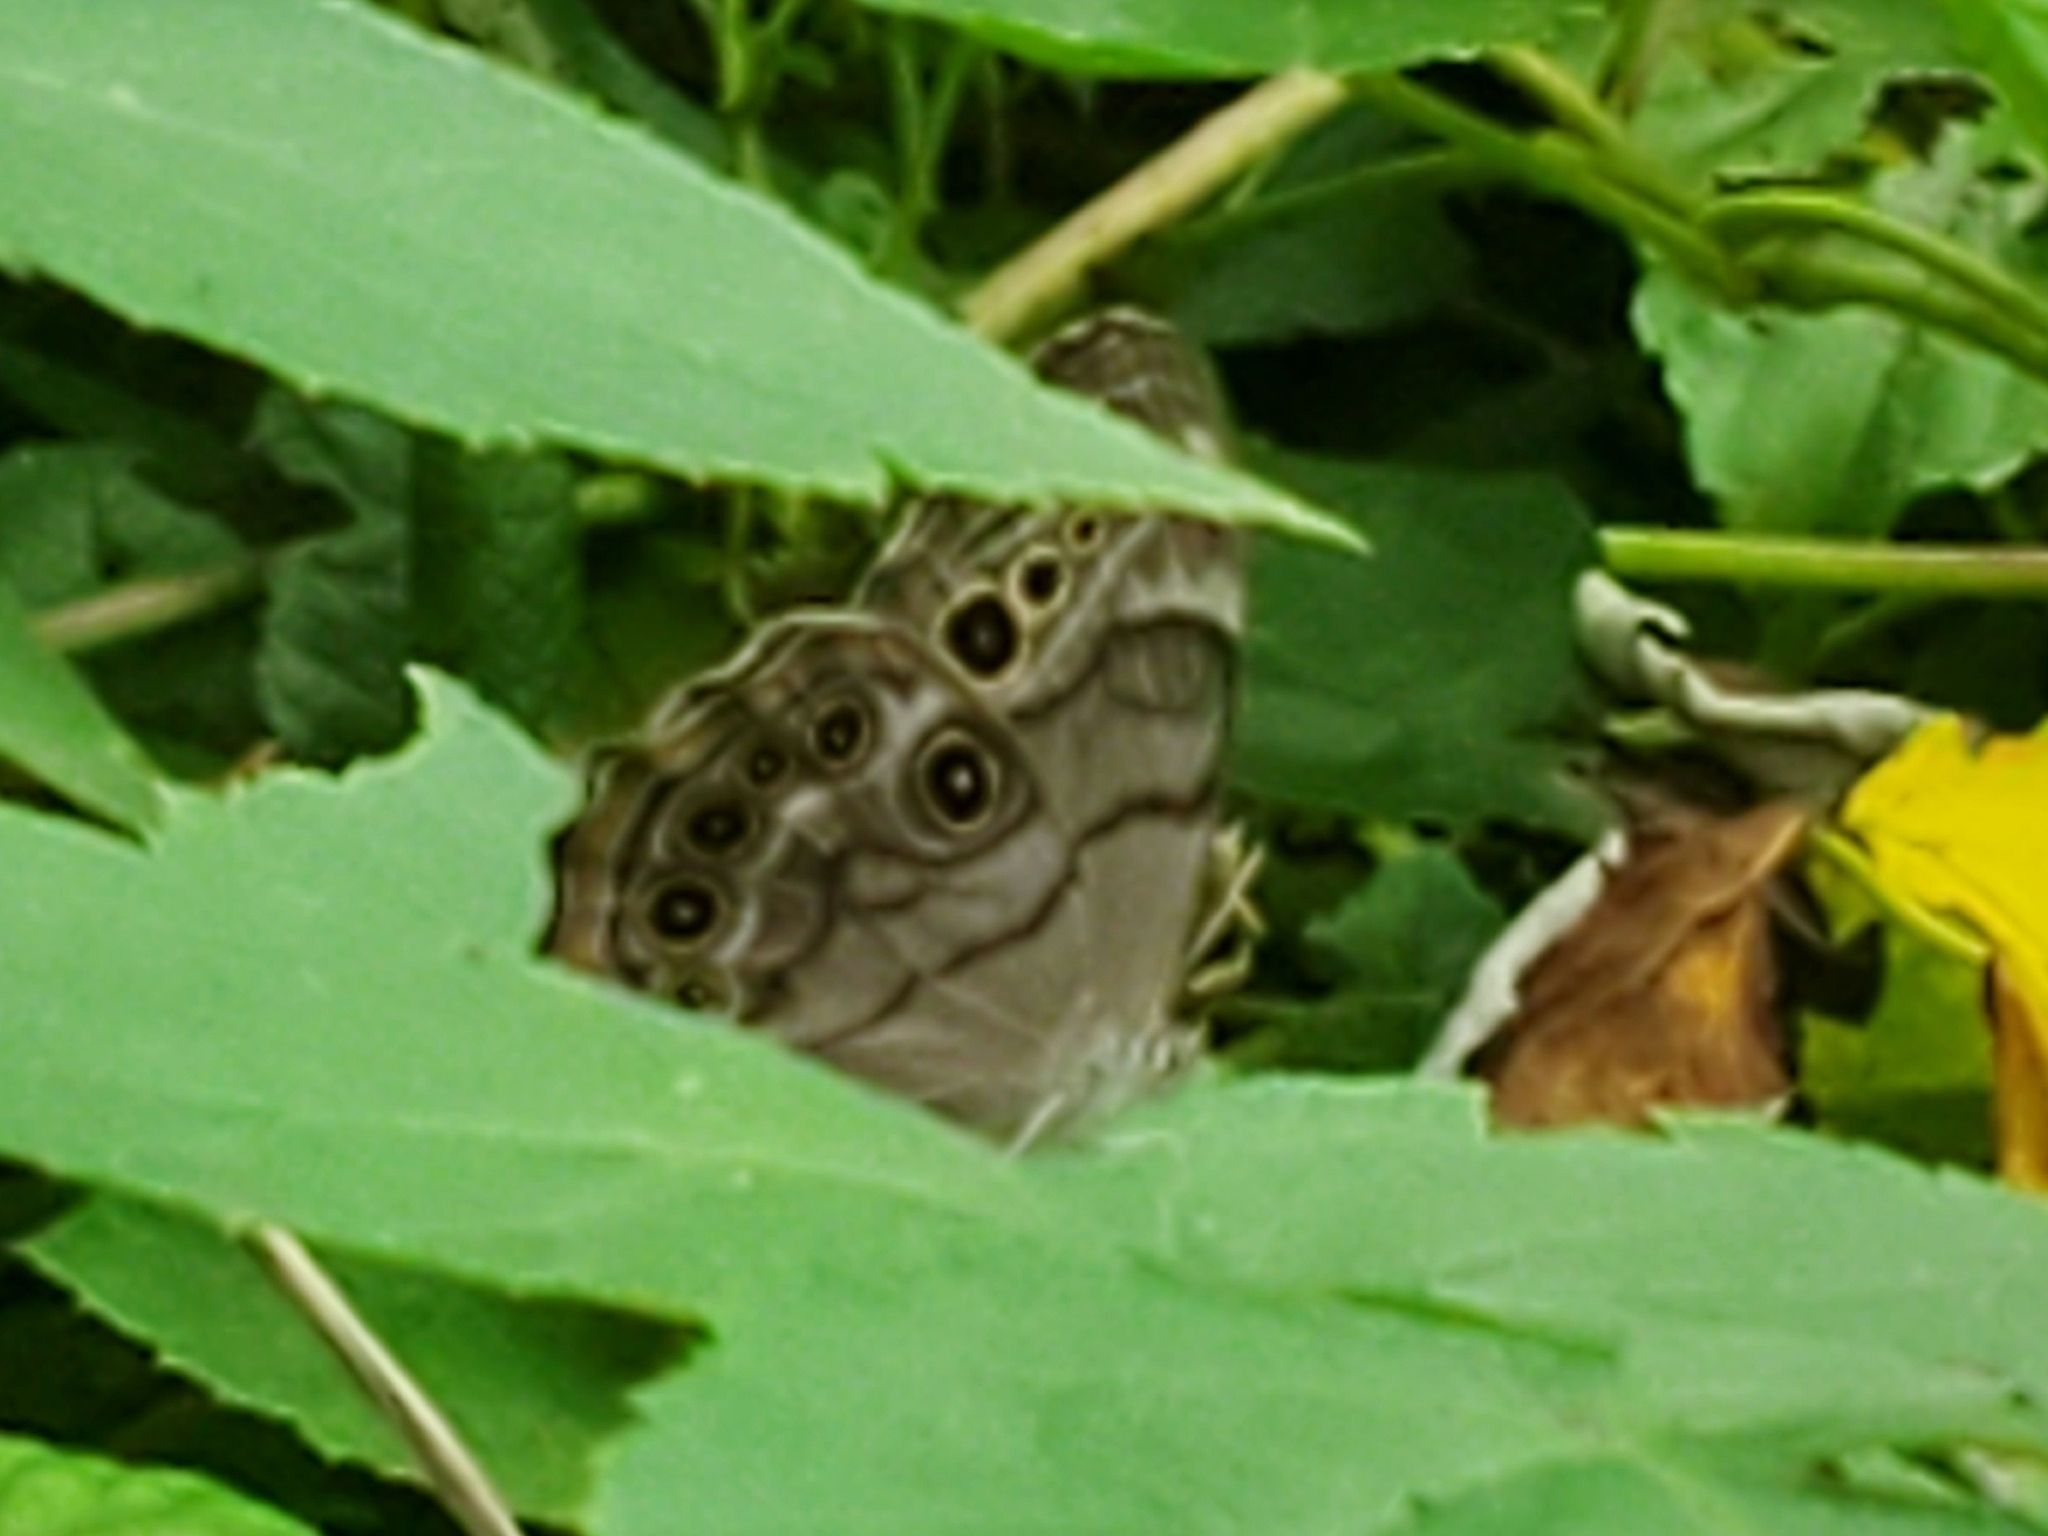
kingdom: Animalia
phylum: Arthropoda
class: Insecta
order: Lepidoptera
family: Nymphalidae
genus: Lethe
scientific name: Lethe anthedon
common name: Northern pearly-eye
